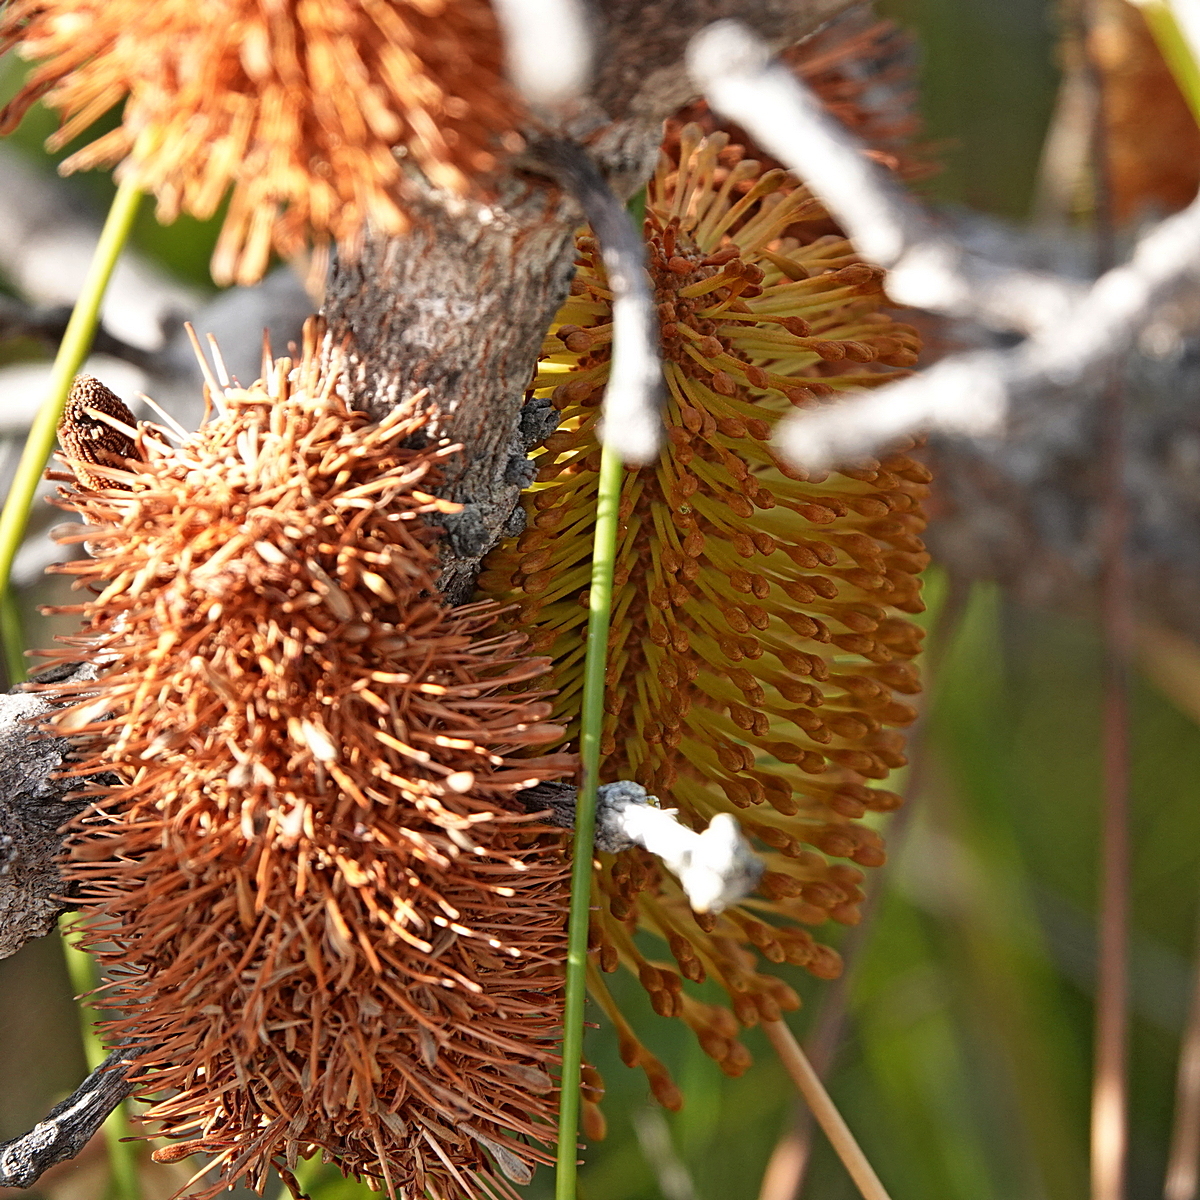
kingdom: Plantae
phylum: Tracheophyta
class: Magnoliopsida
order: Proteales
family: Proteaceae
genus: Banksia
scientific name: Banksia paludosa
